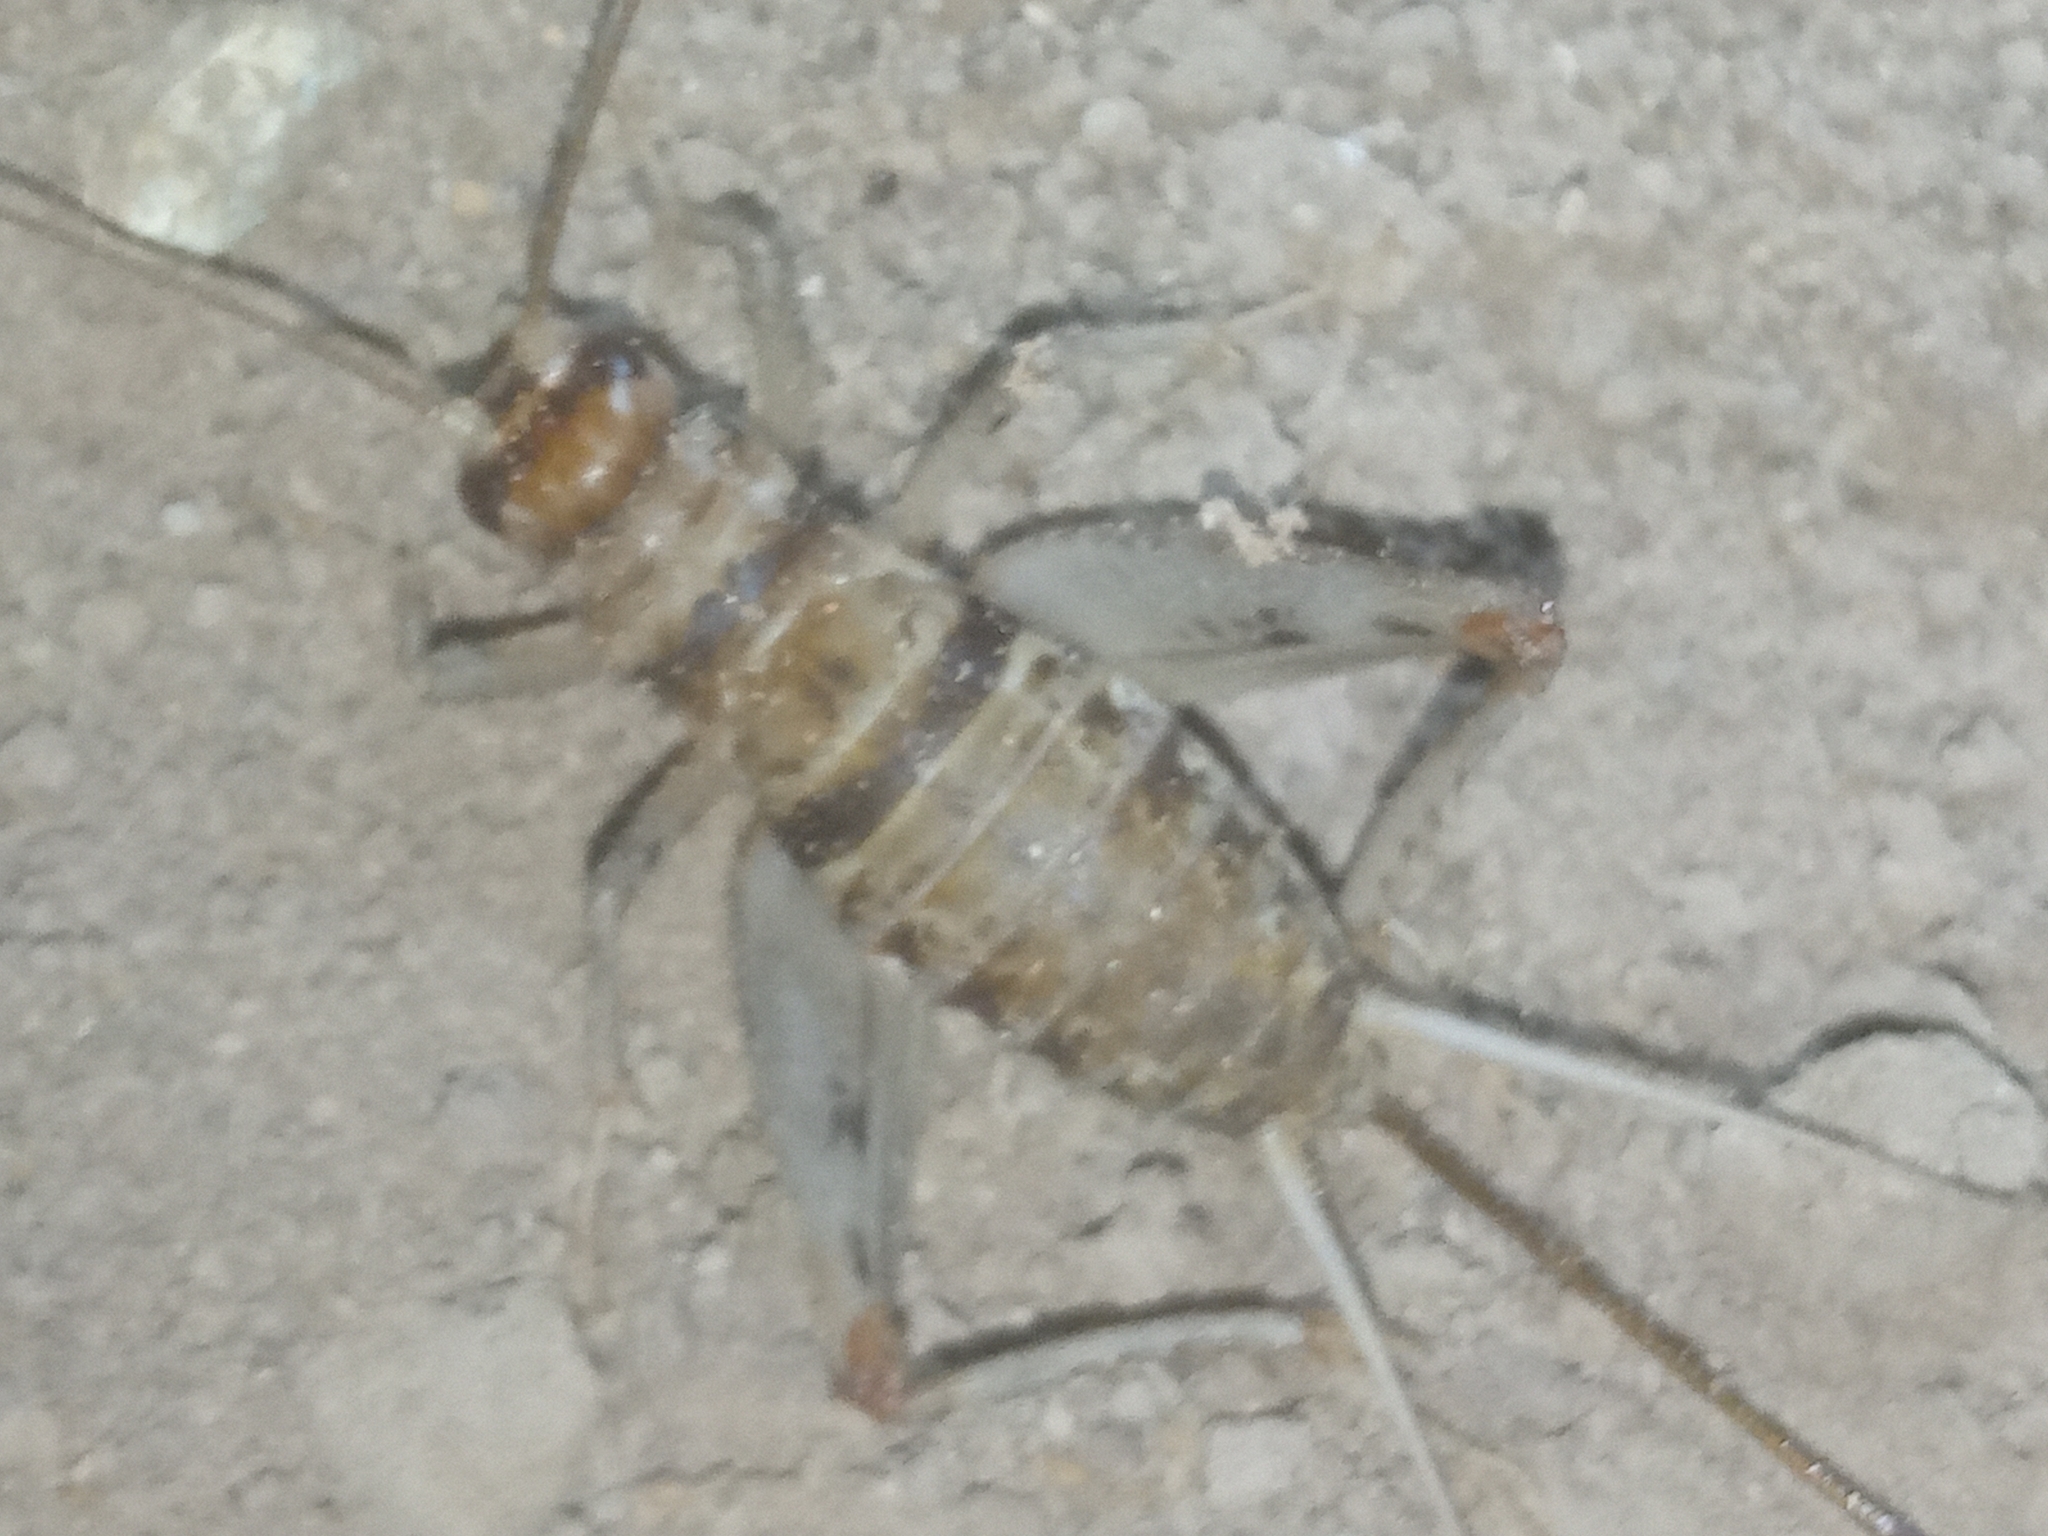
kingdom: Animalia
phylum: Arthropoda
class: Insecta
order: Orthoptera
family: Gryllidae
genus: Gryllodes
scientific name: Gryllodes sigillatus
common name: Tropical house cricket
